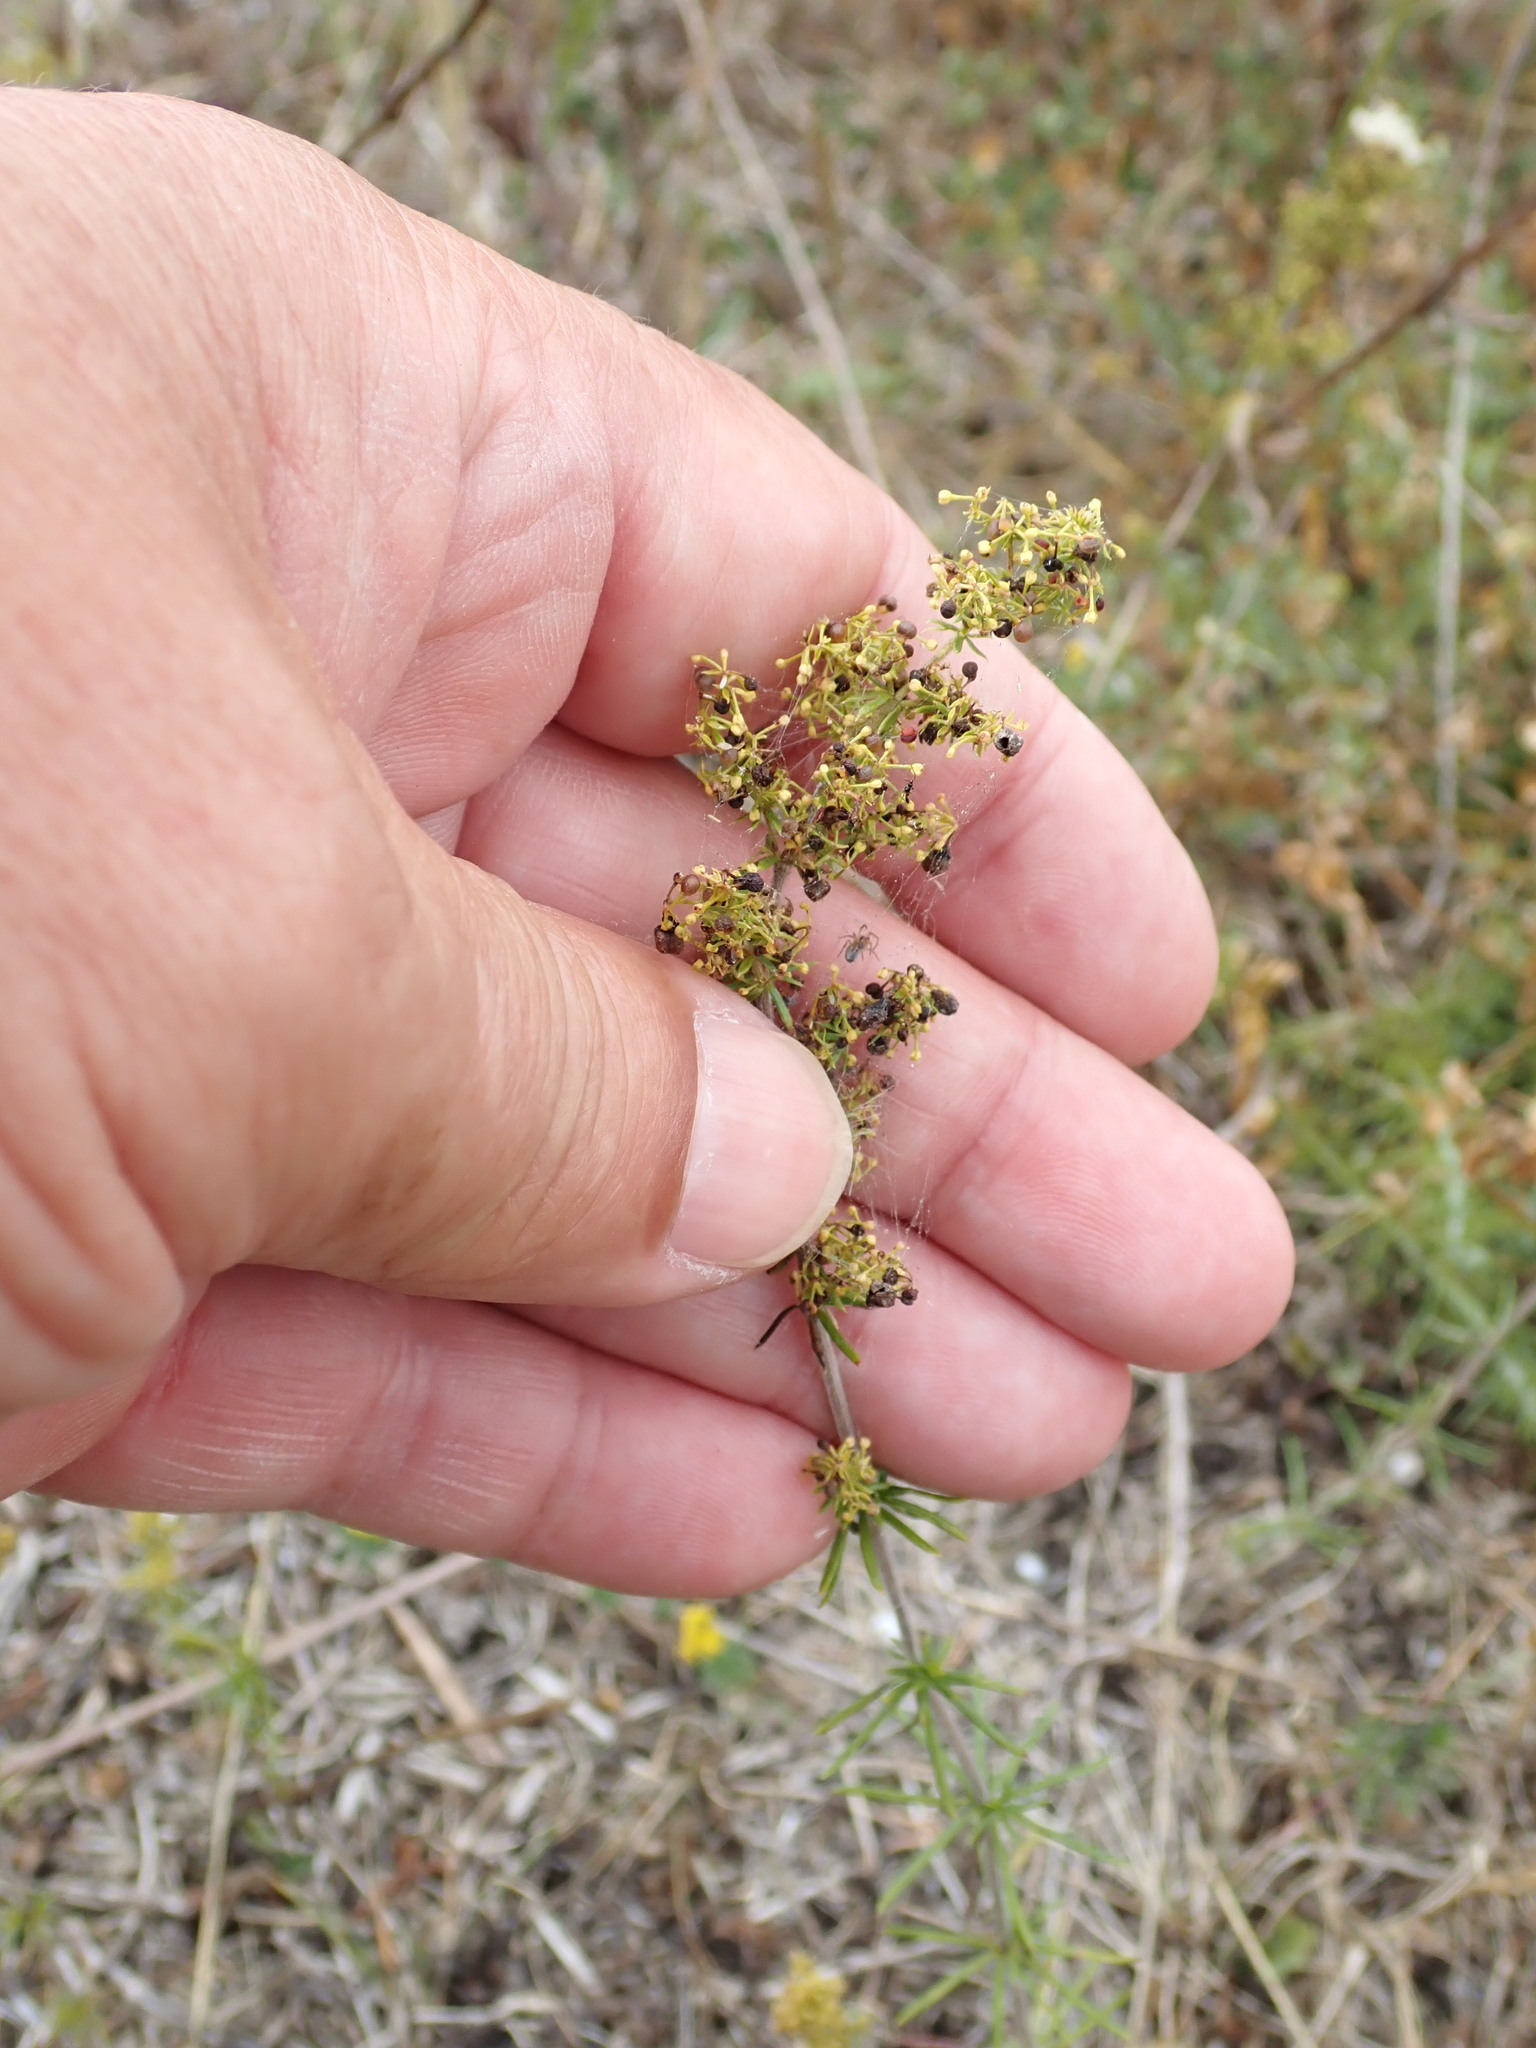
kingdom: Plantae
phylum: Tracheophyta
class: Magnoliopsida
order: Gentianales
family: Rubiaceae
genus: Galium
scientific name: Galium verum
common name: Lady's bedstraw
